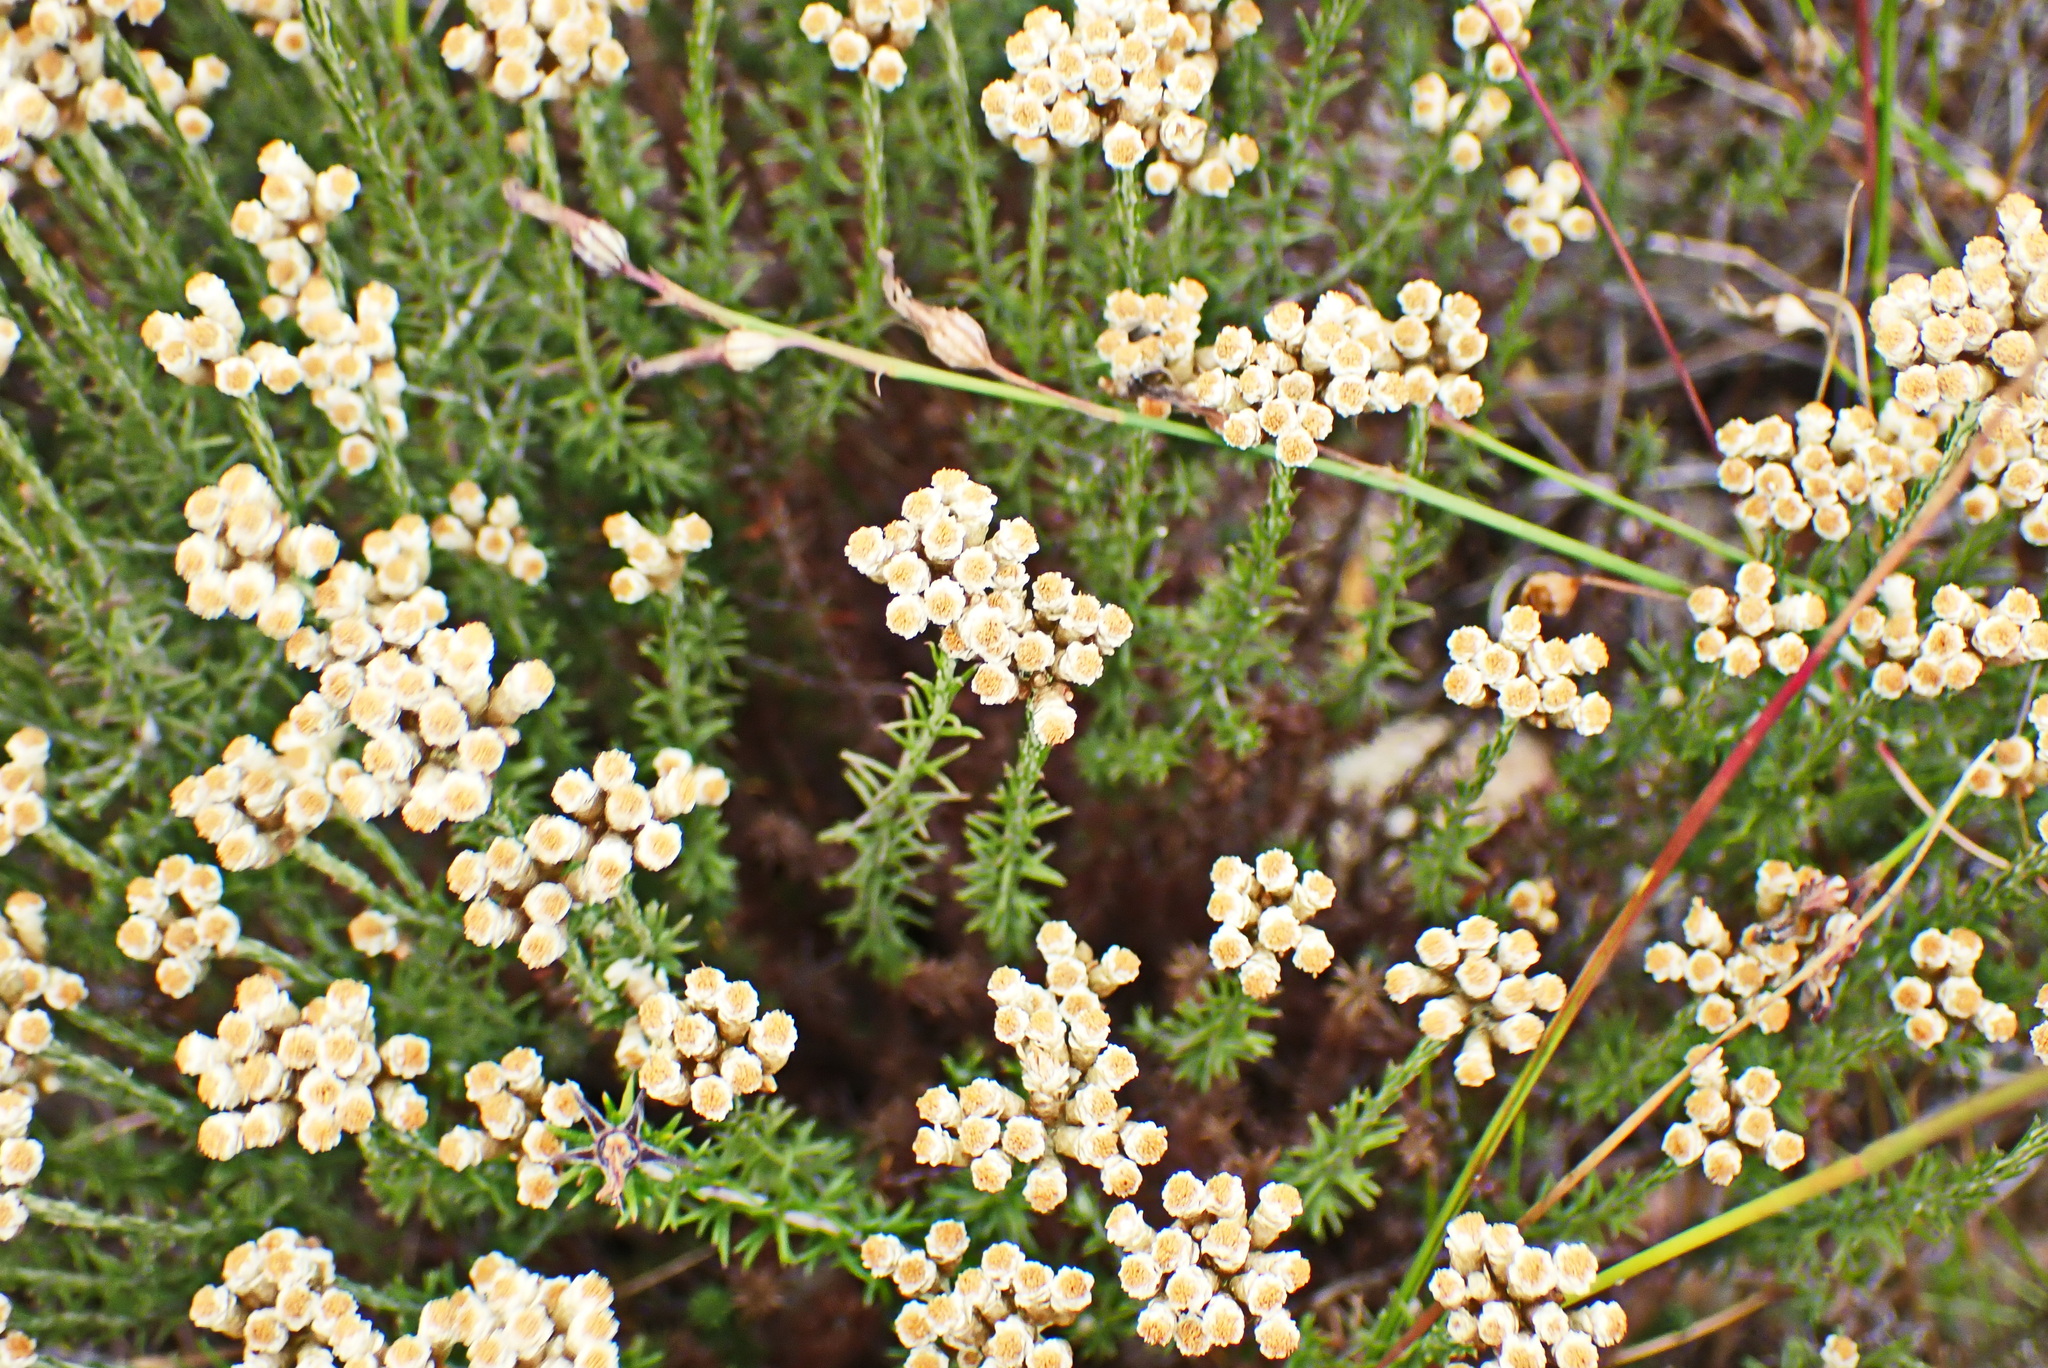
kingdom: Plantae
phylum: Tracheophyta
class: Magnoliopsida
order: Asterales
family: Asteraceae
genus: Helichrysum
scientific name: Helichrysum teretifolium
